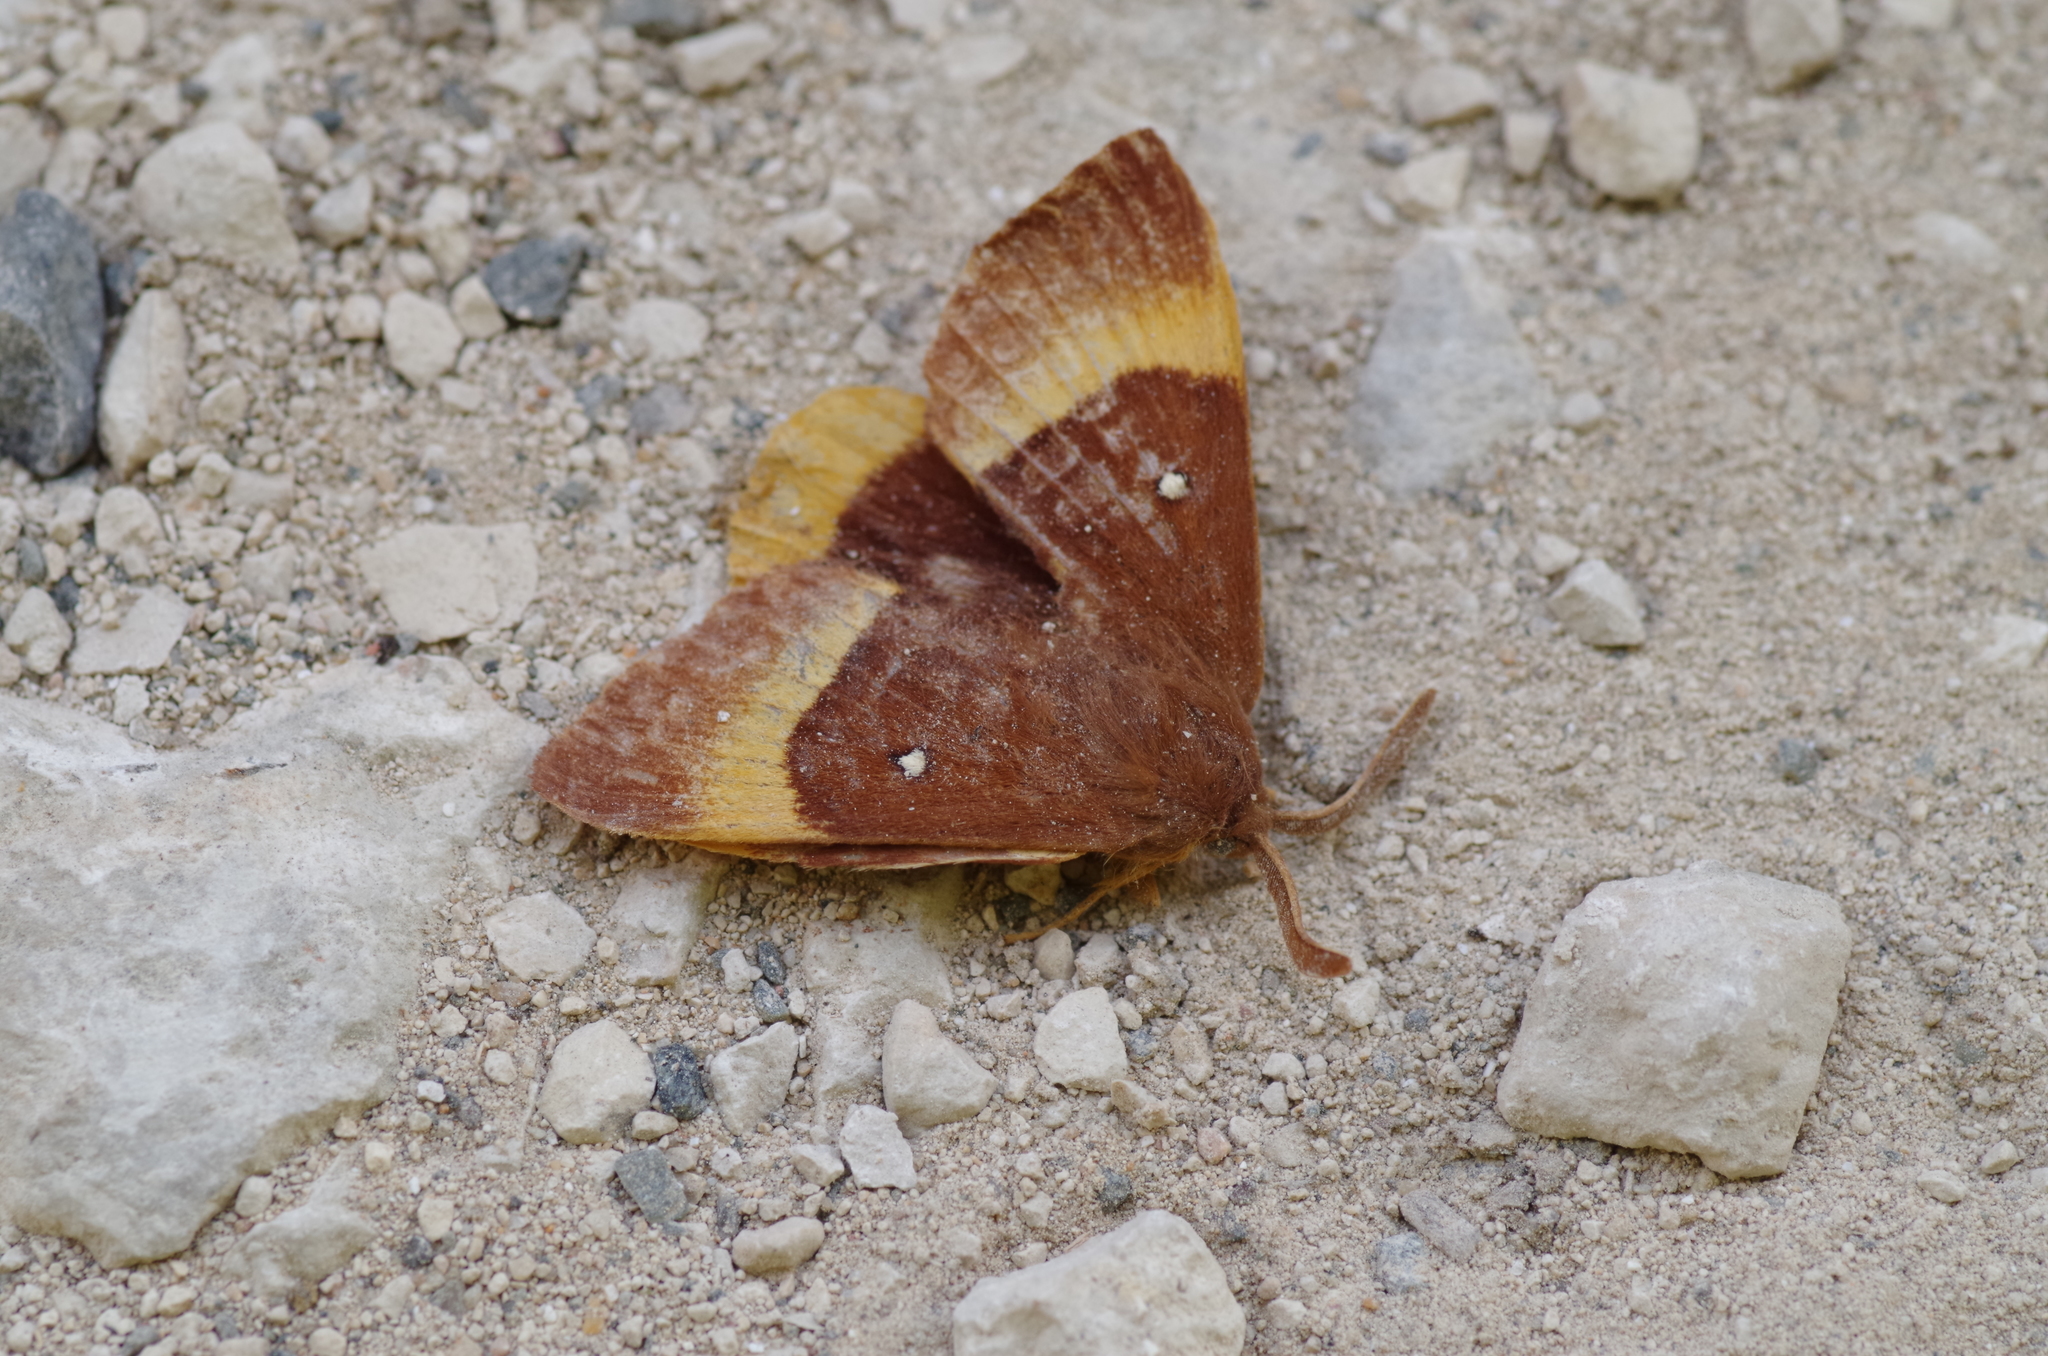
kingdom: Animalia
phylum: Arthropoda
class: Insecta
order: Lepidoptera
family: Lasiocampidae
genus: Lasiocampa
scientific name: Lasiocampa quercus
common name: Oak eggar
